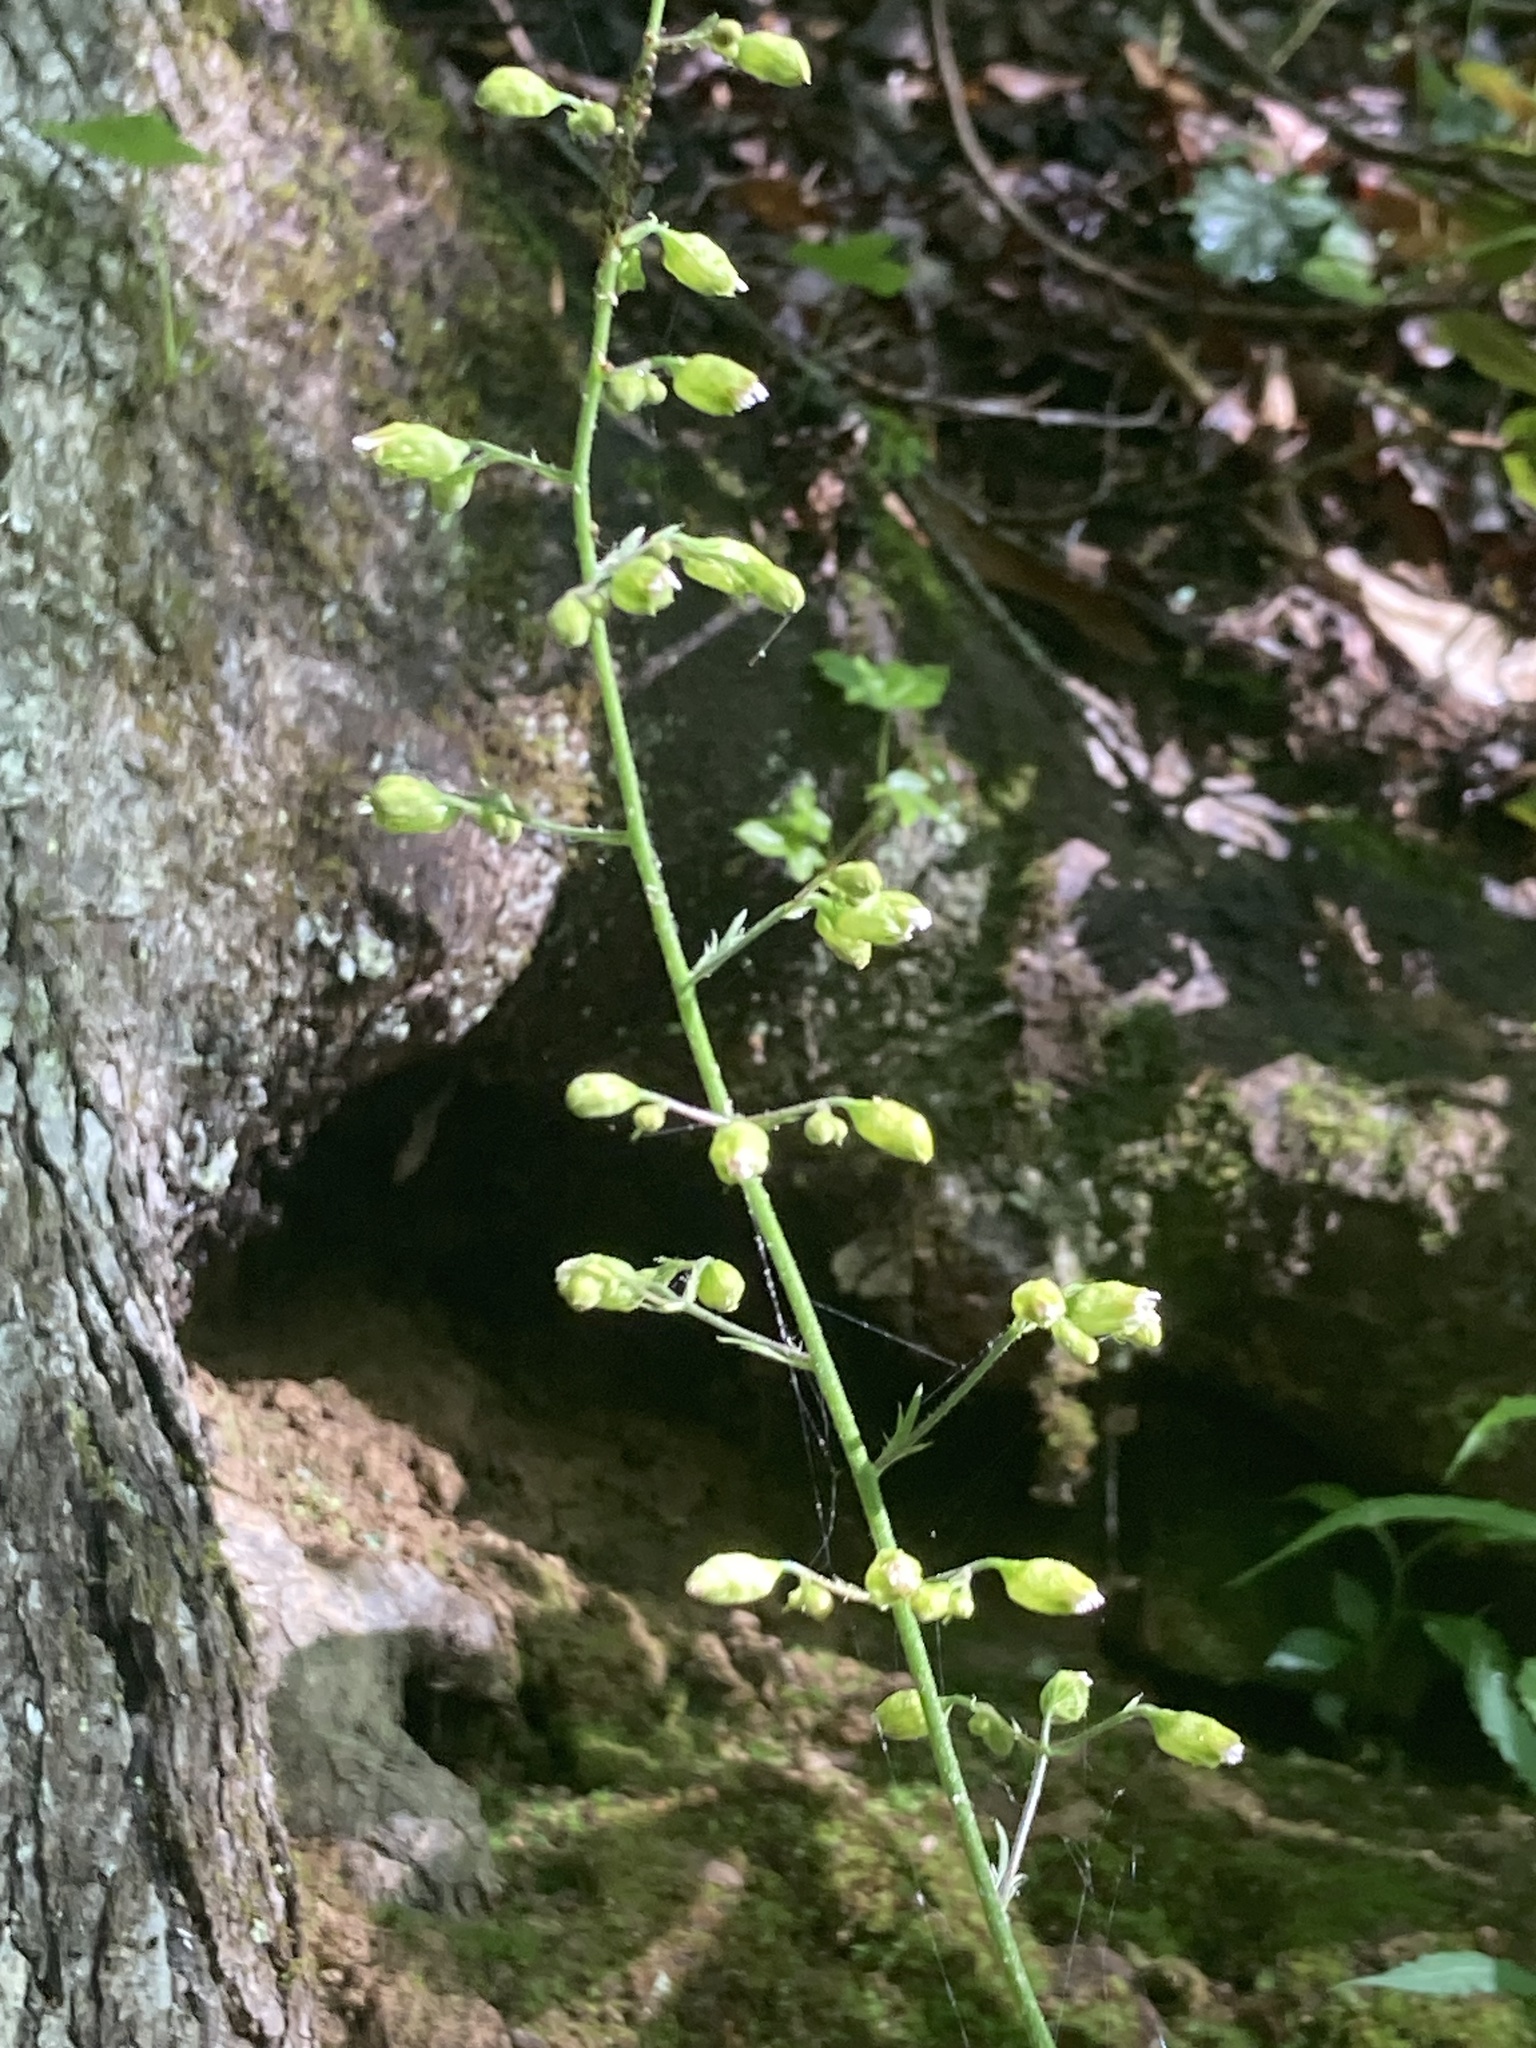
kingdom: Plantae
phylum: Tracheophyta
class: Magnoliopsida
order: Saxifragales
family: Saxifragaceae
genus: Heuchera
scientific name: Heuchera americana
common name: Alumroot
